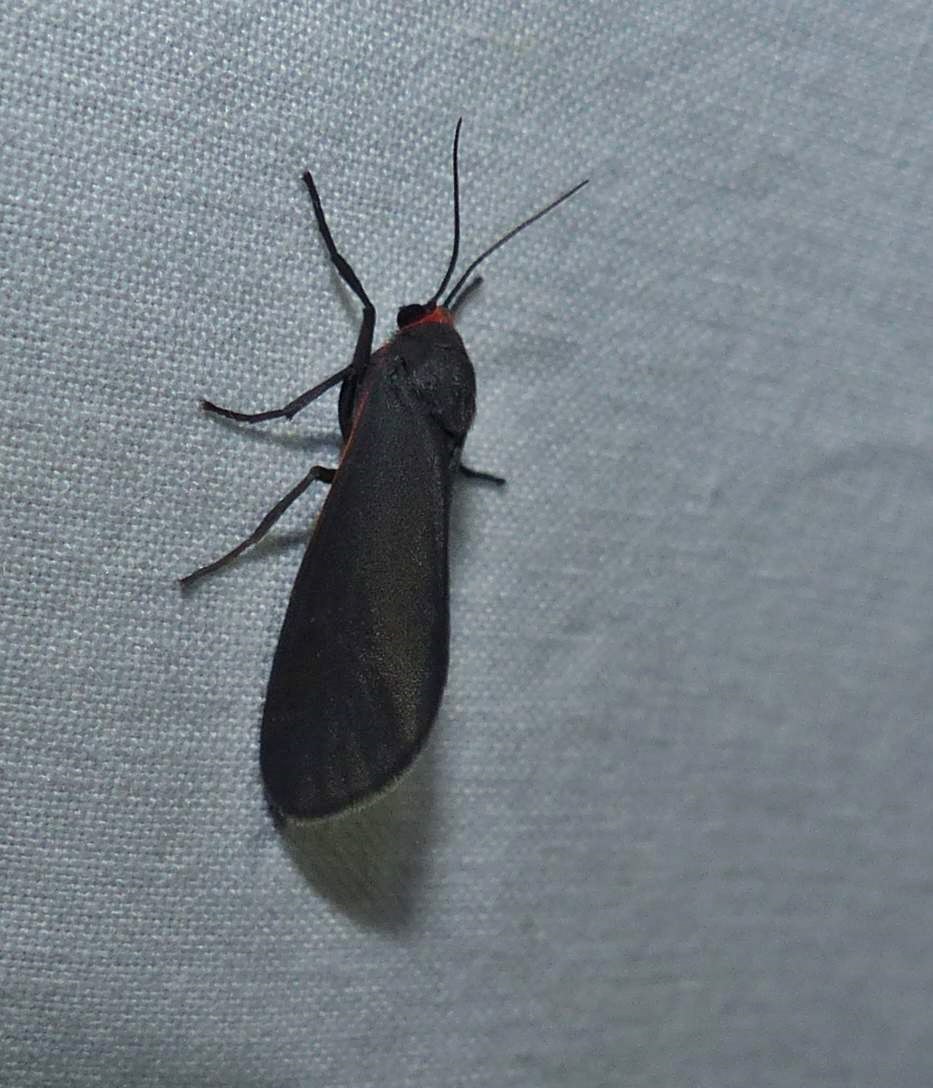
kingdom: Animalia
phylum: Arthropoda
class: Insecta
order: Lepidoptera
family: Erebidae
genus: Virbia
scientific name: Virbia laeta
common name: Joyful holomelina moth
